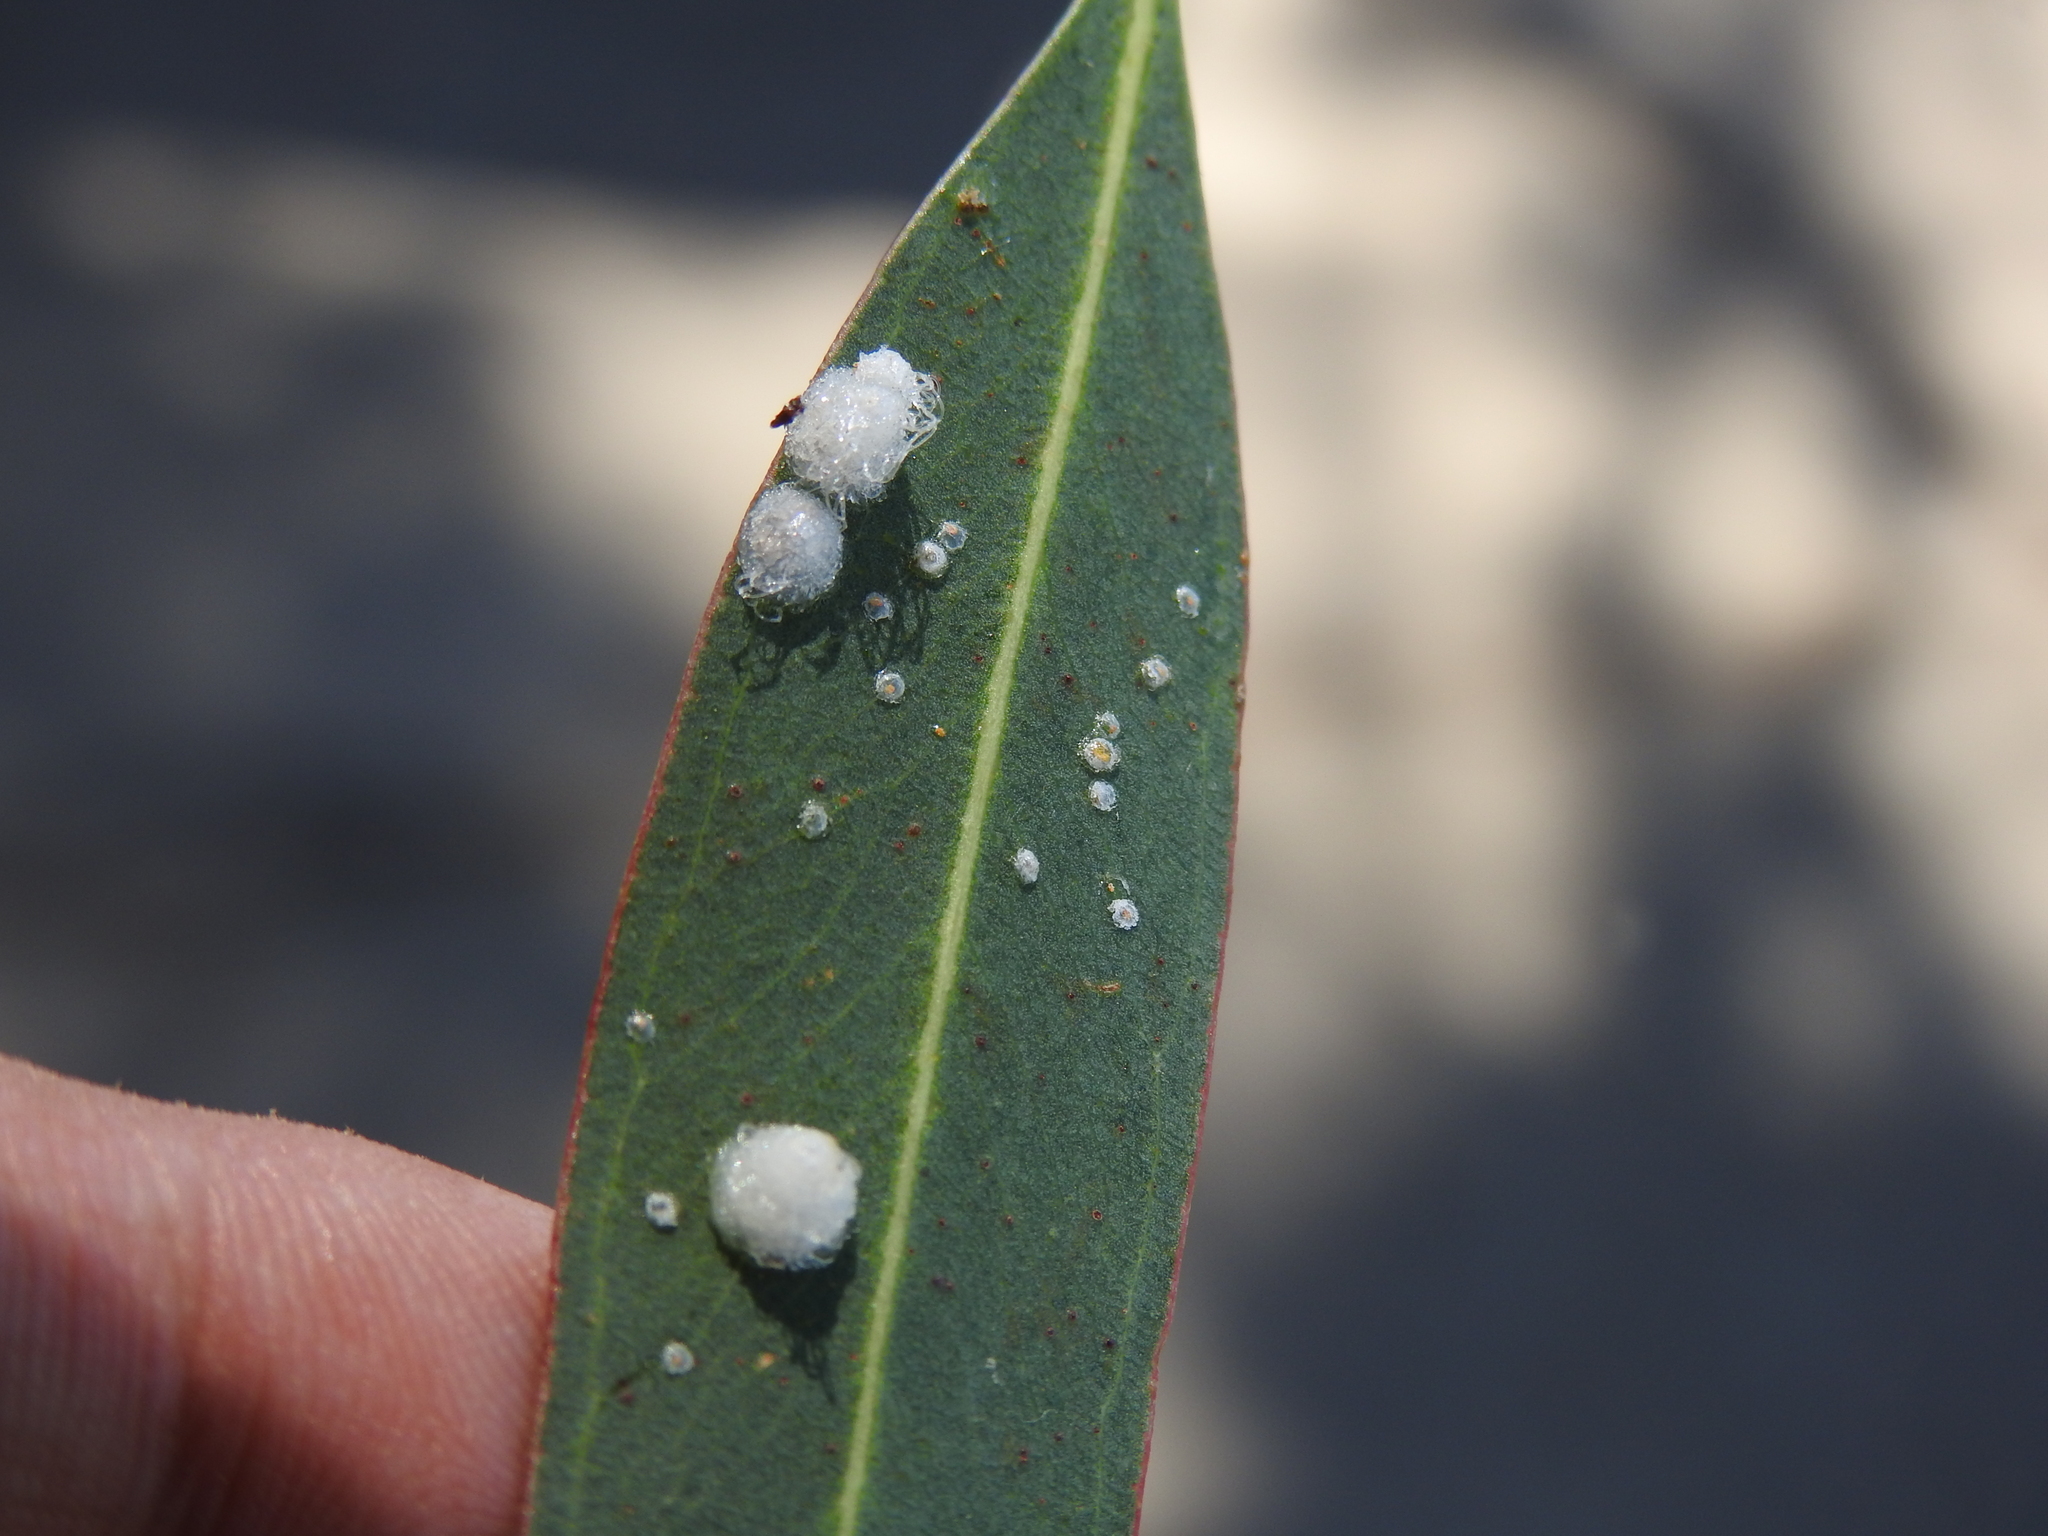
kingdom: Animalia
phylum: Arthropoda
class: Insecta
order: Hemiptera
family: Aphalaridae
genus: Glycaspis
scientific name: Glycaspis brimblecombei
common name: Red gum lerp psyllid
